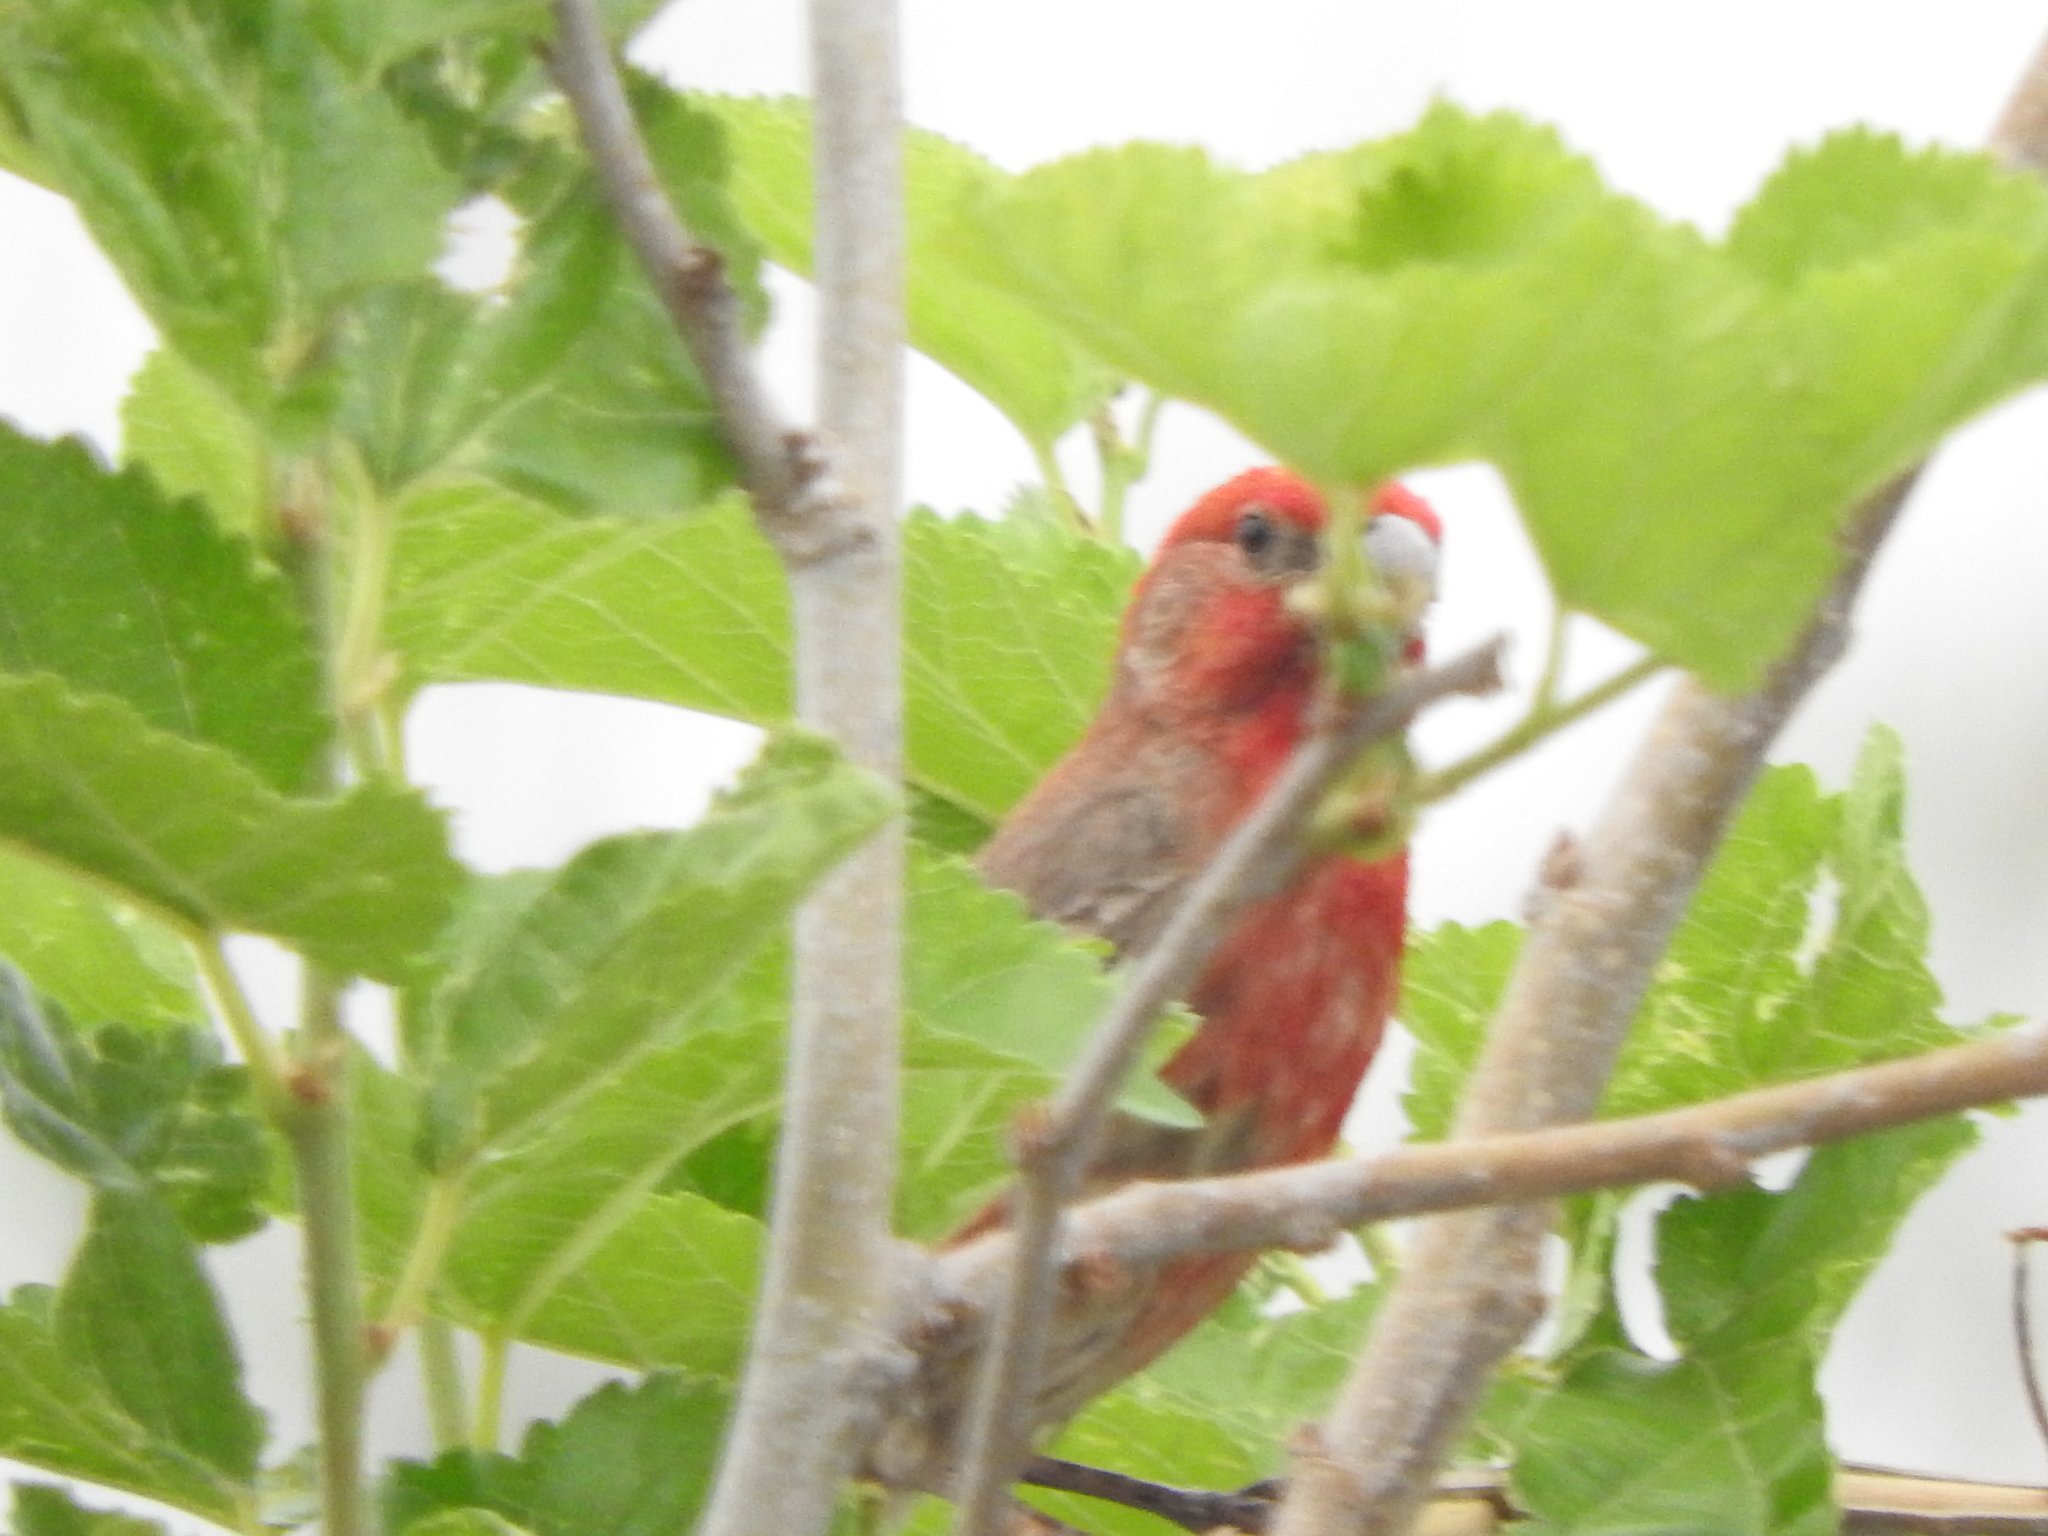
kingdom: Animalia
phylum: Chordata
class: Aves
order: Passeriformes
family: Fringillidae
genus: Haemorhous
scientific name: Haemorhous mexicanus
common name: House finch
